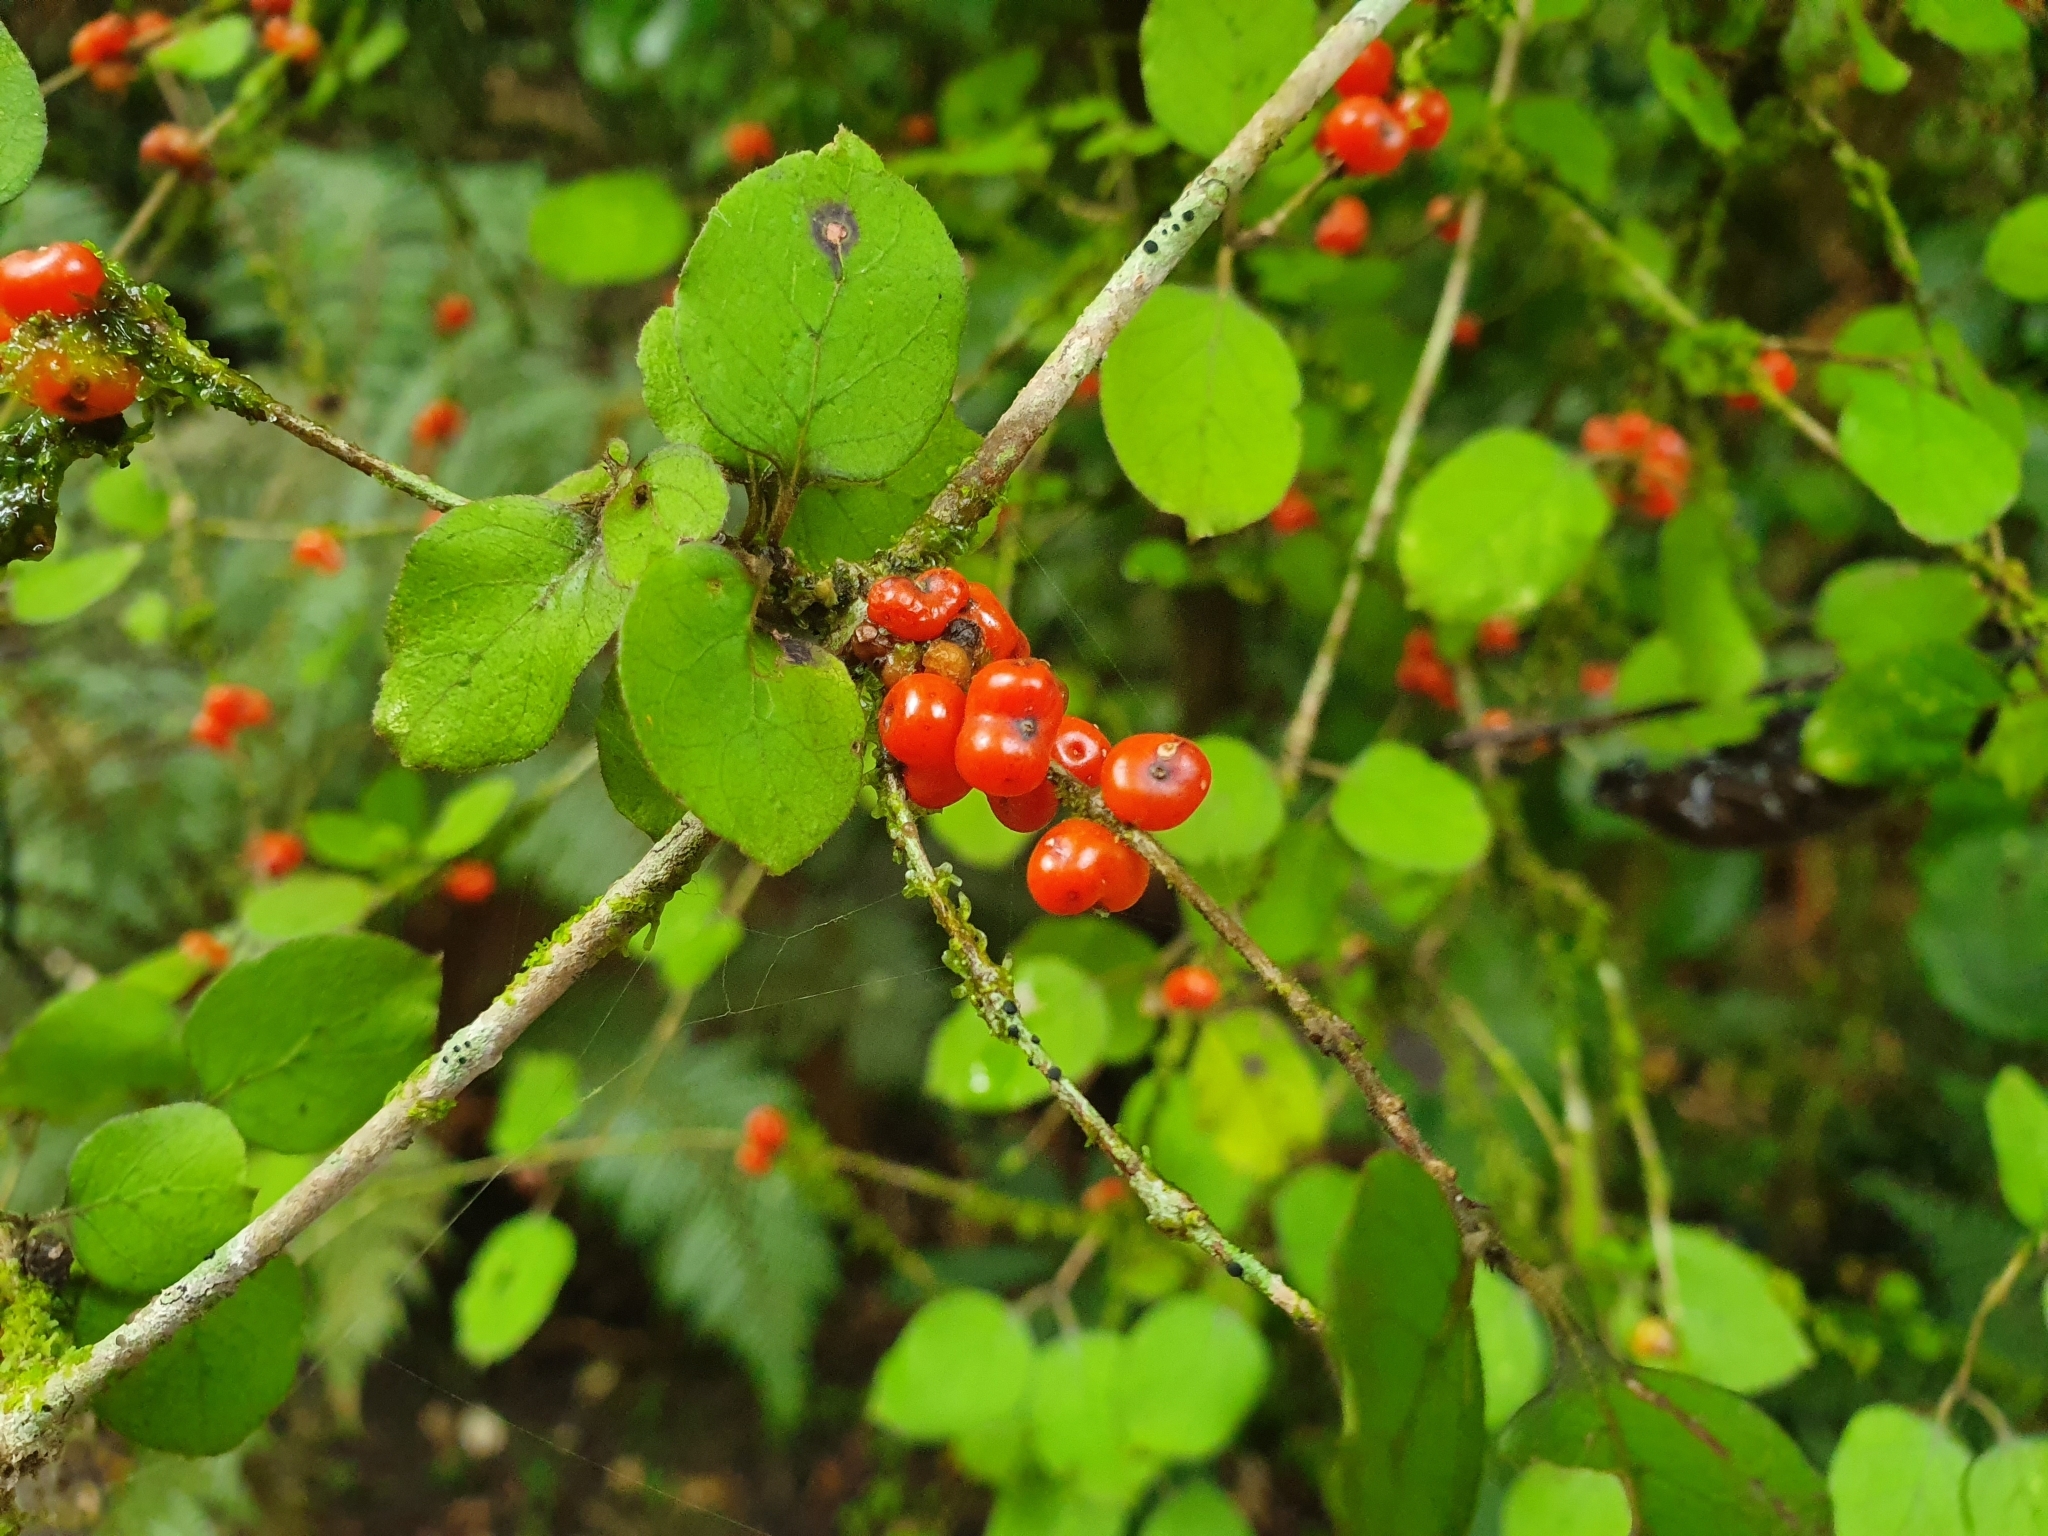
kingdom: Plantae
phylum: Tracheophyta
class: Magnoliopsida
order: Gentianales
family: Rubiaceae
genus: Coprosma
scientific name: Coprosma rotundifolia
